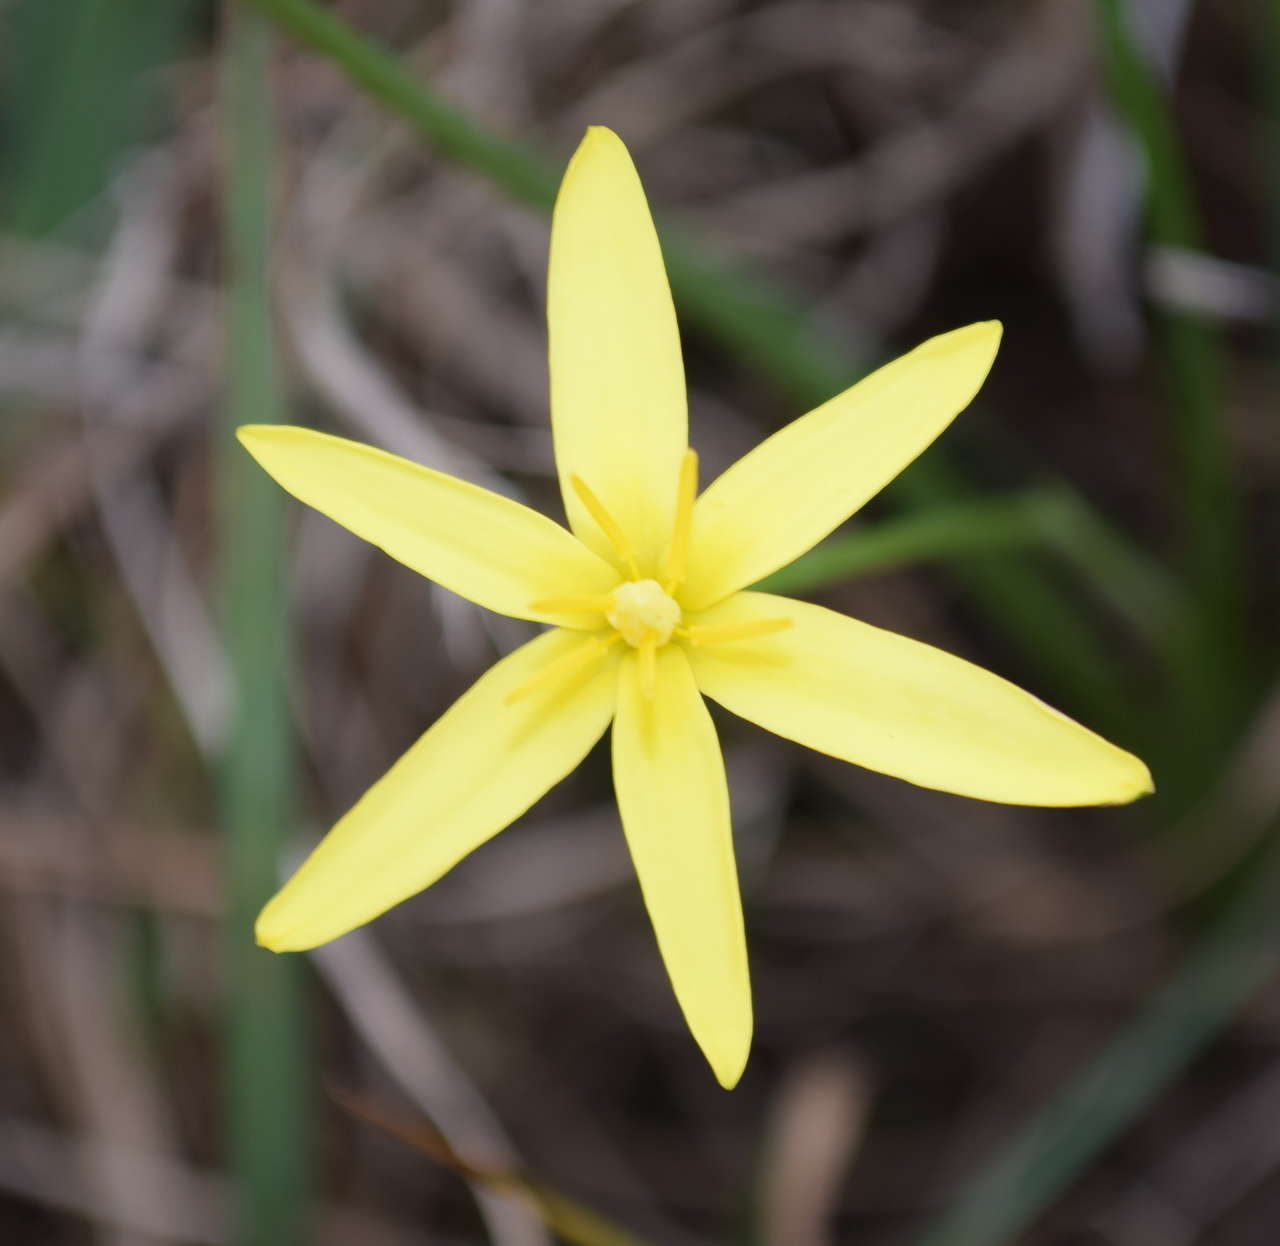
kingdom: Plantae
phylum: Tracheophyta
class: Liliopsida
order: Asparagales
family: Hypoxidaceae
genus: Pauridia
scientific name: Pauridia vaginata
